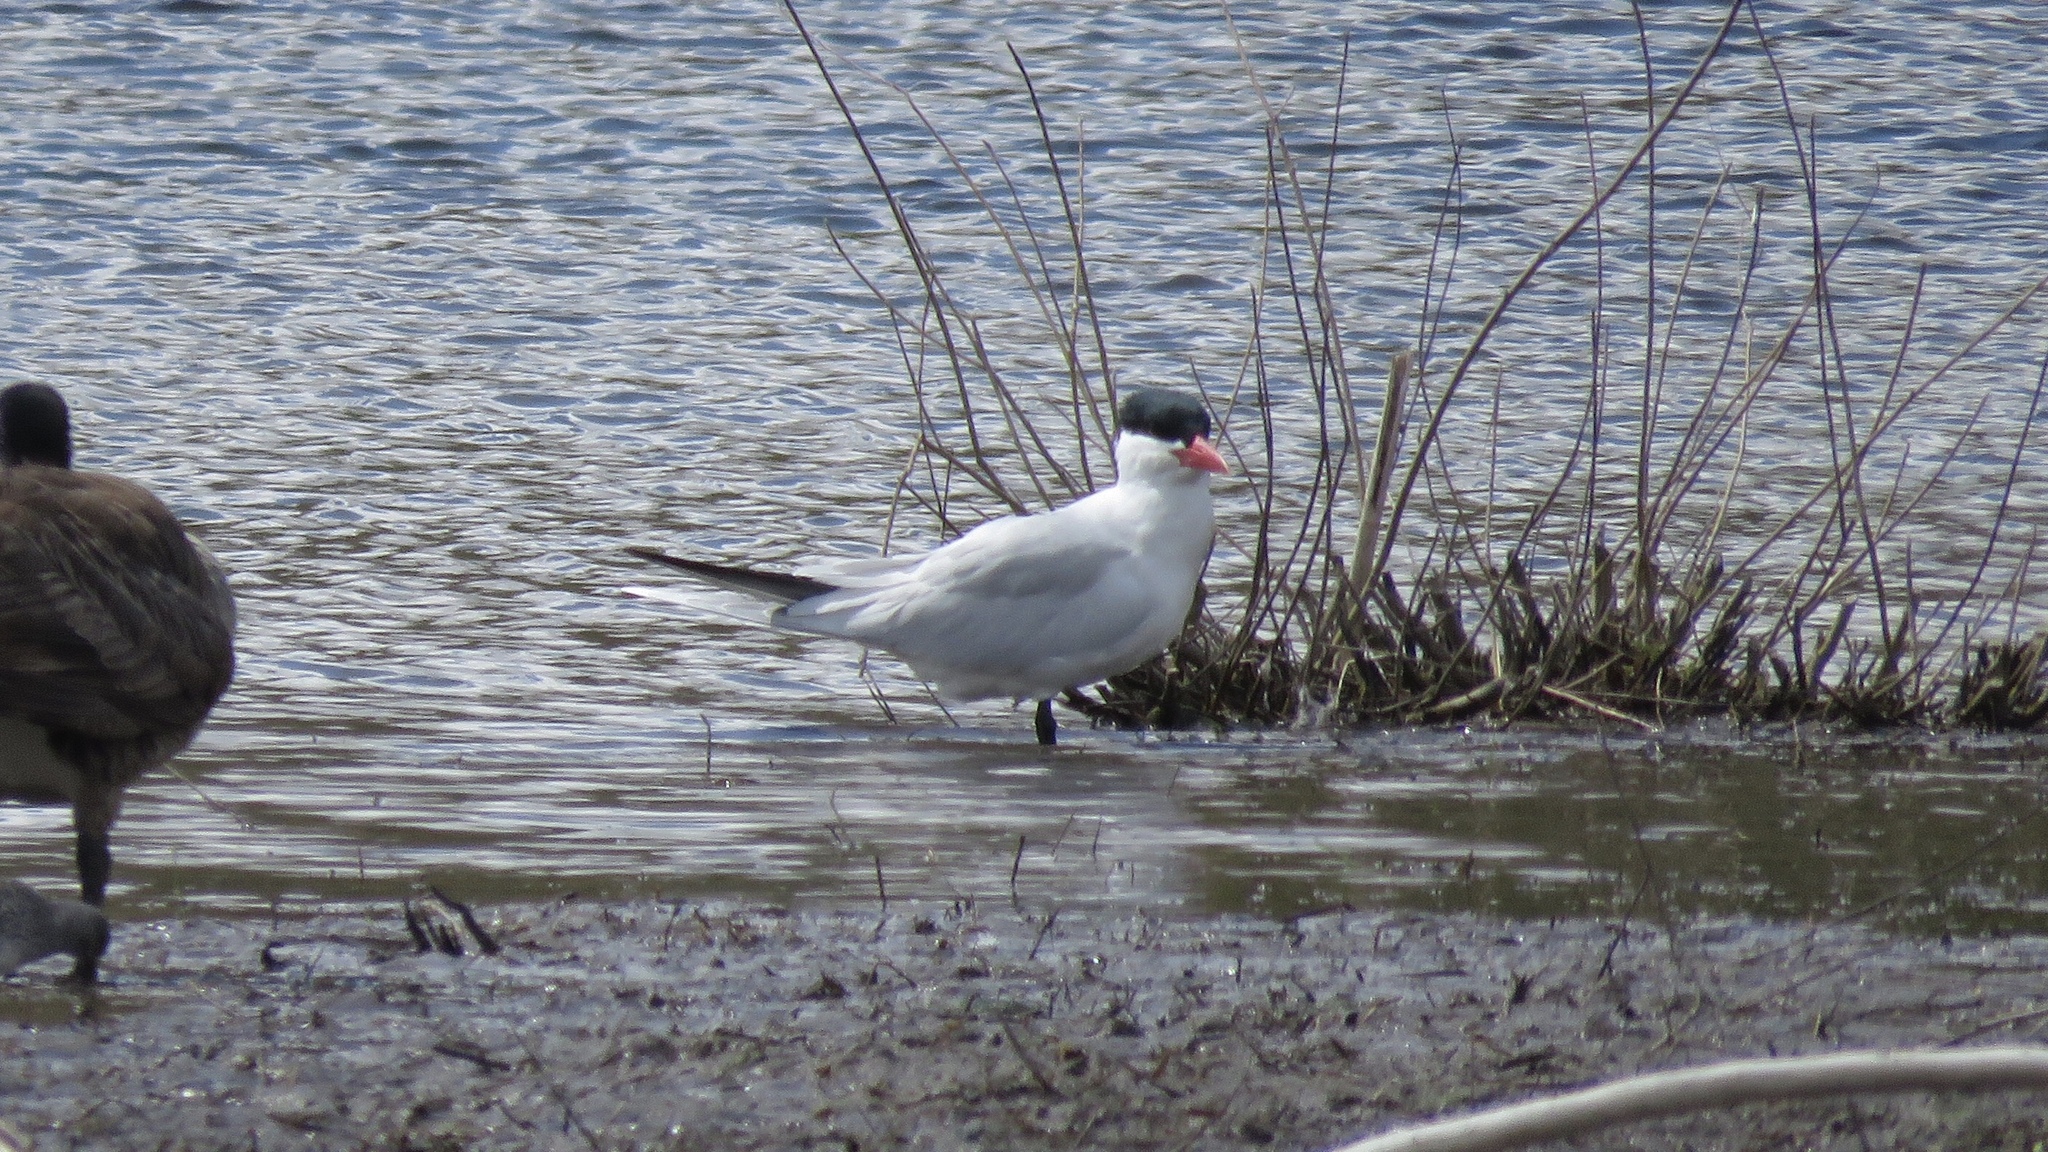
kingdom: Animalia
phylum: Chordata
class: Aves
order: Charadriiformes
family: Laridae
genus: Hydroprogne
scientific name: Hydroprogne caspia
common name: Caspian tern
